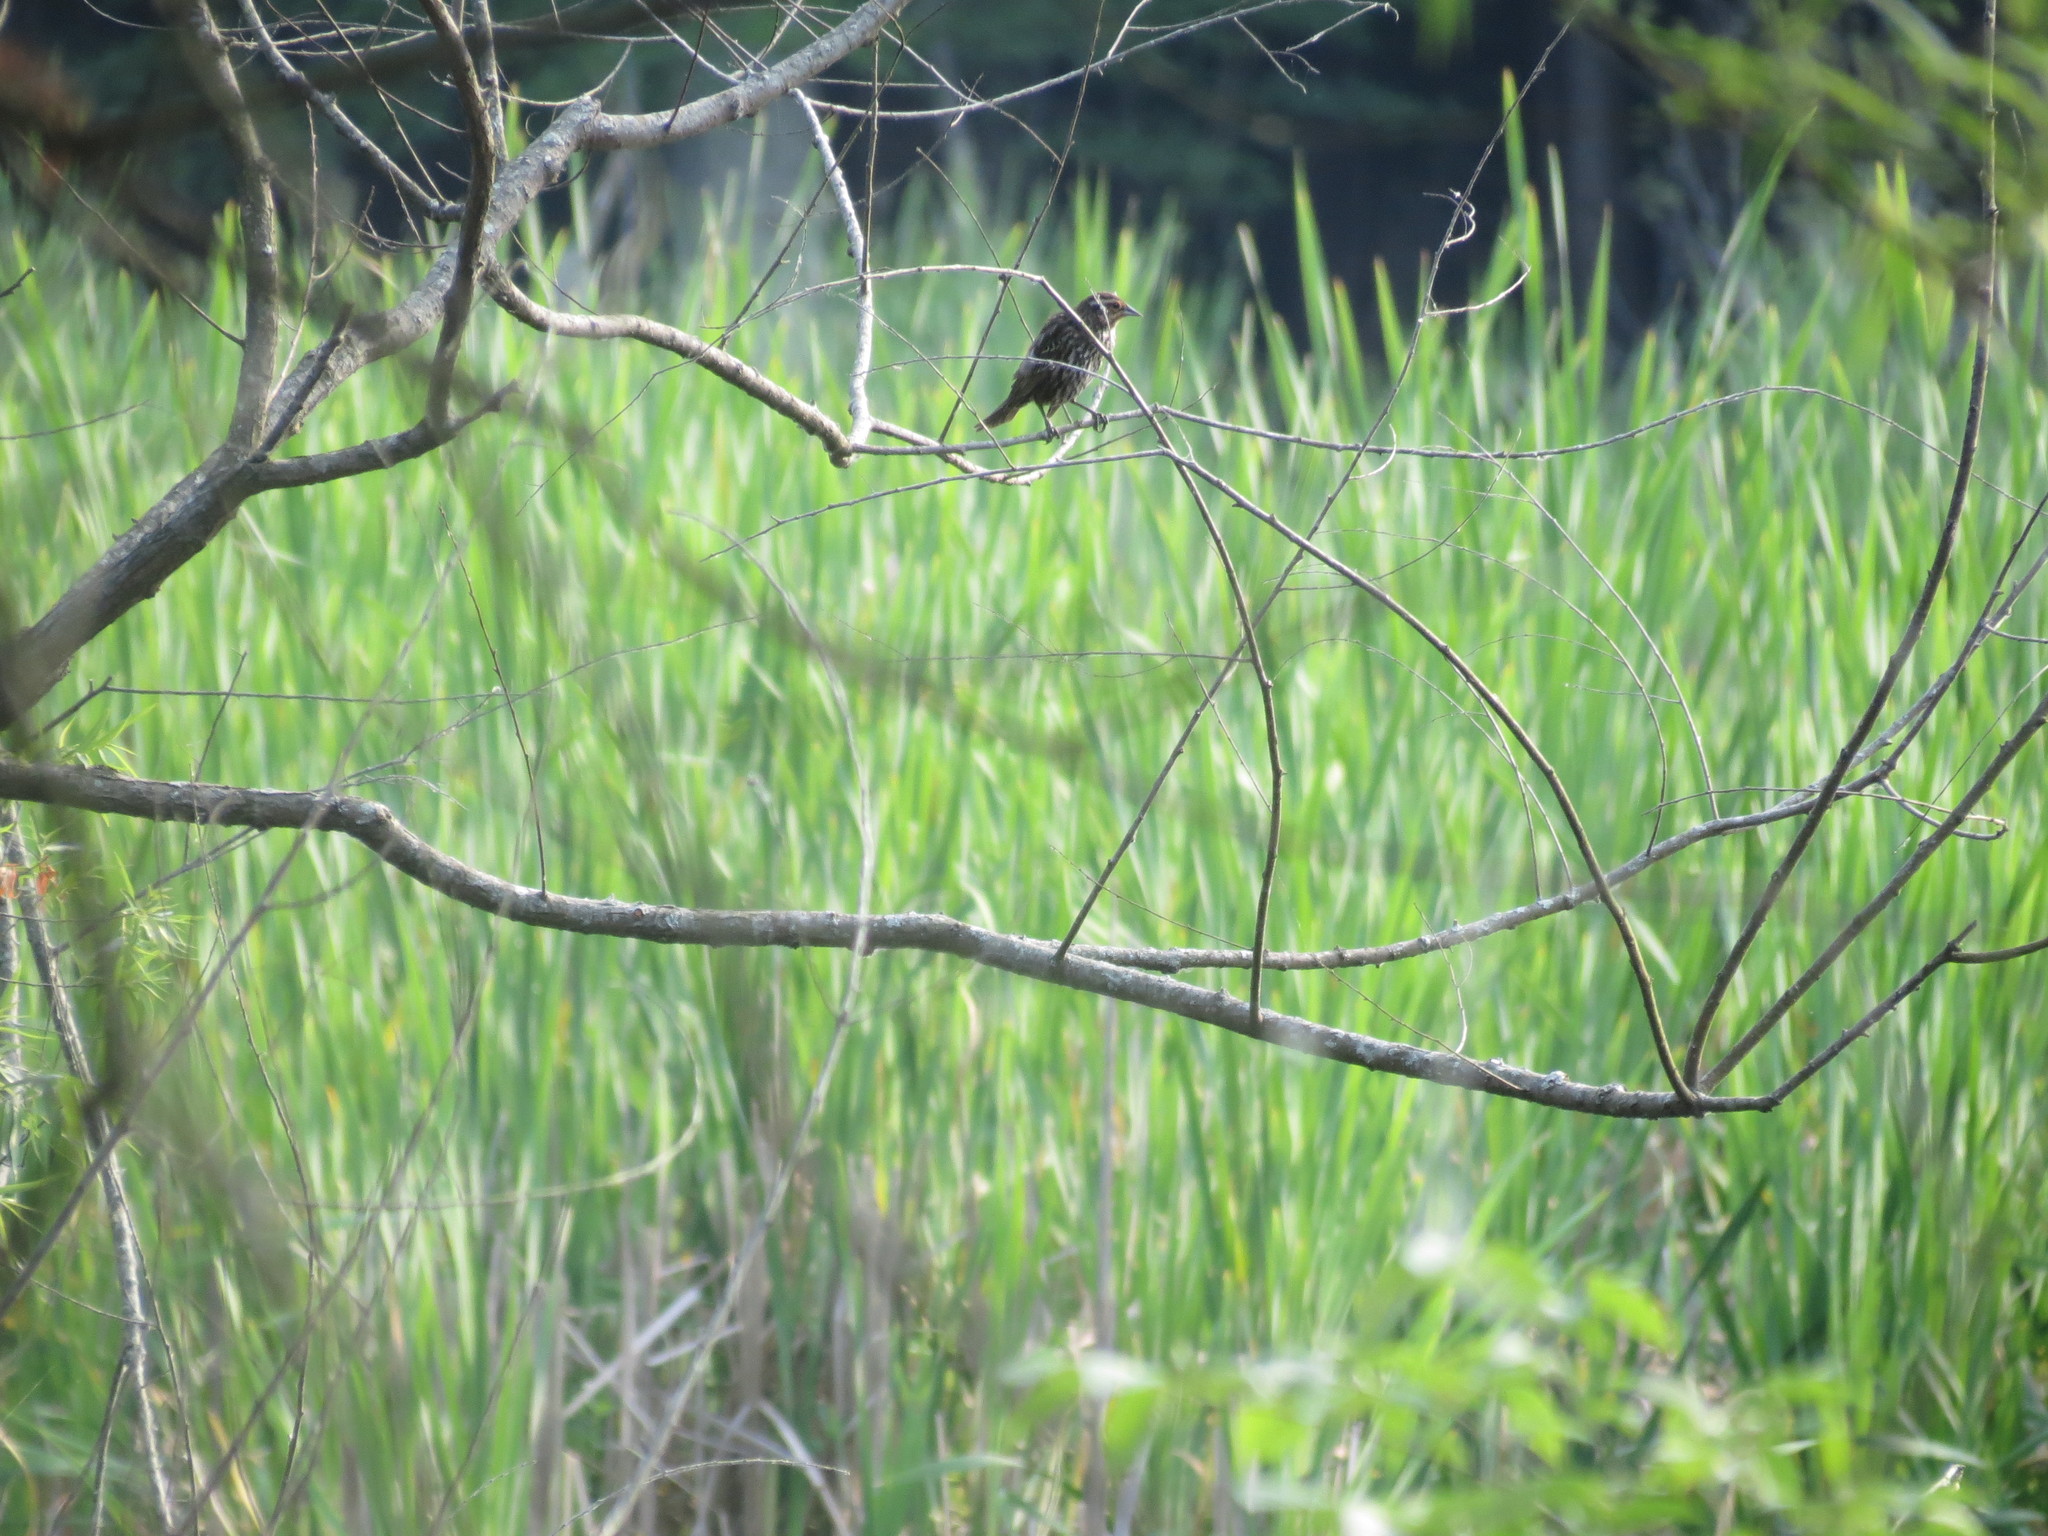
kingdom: Animalia
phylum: Chordata
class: Aves
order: Passeriformes
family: Icteridae
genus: Agelaius
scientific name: Agelaius phoeniceus
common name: Red-winged blackbird
